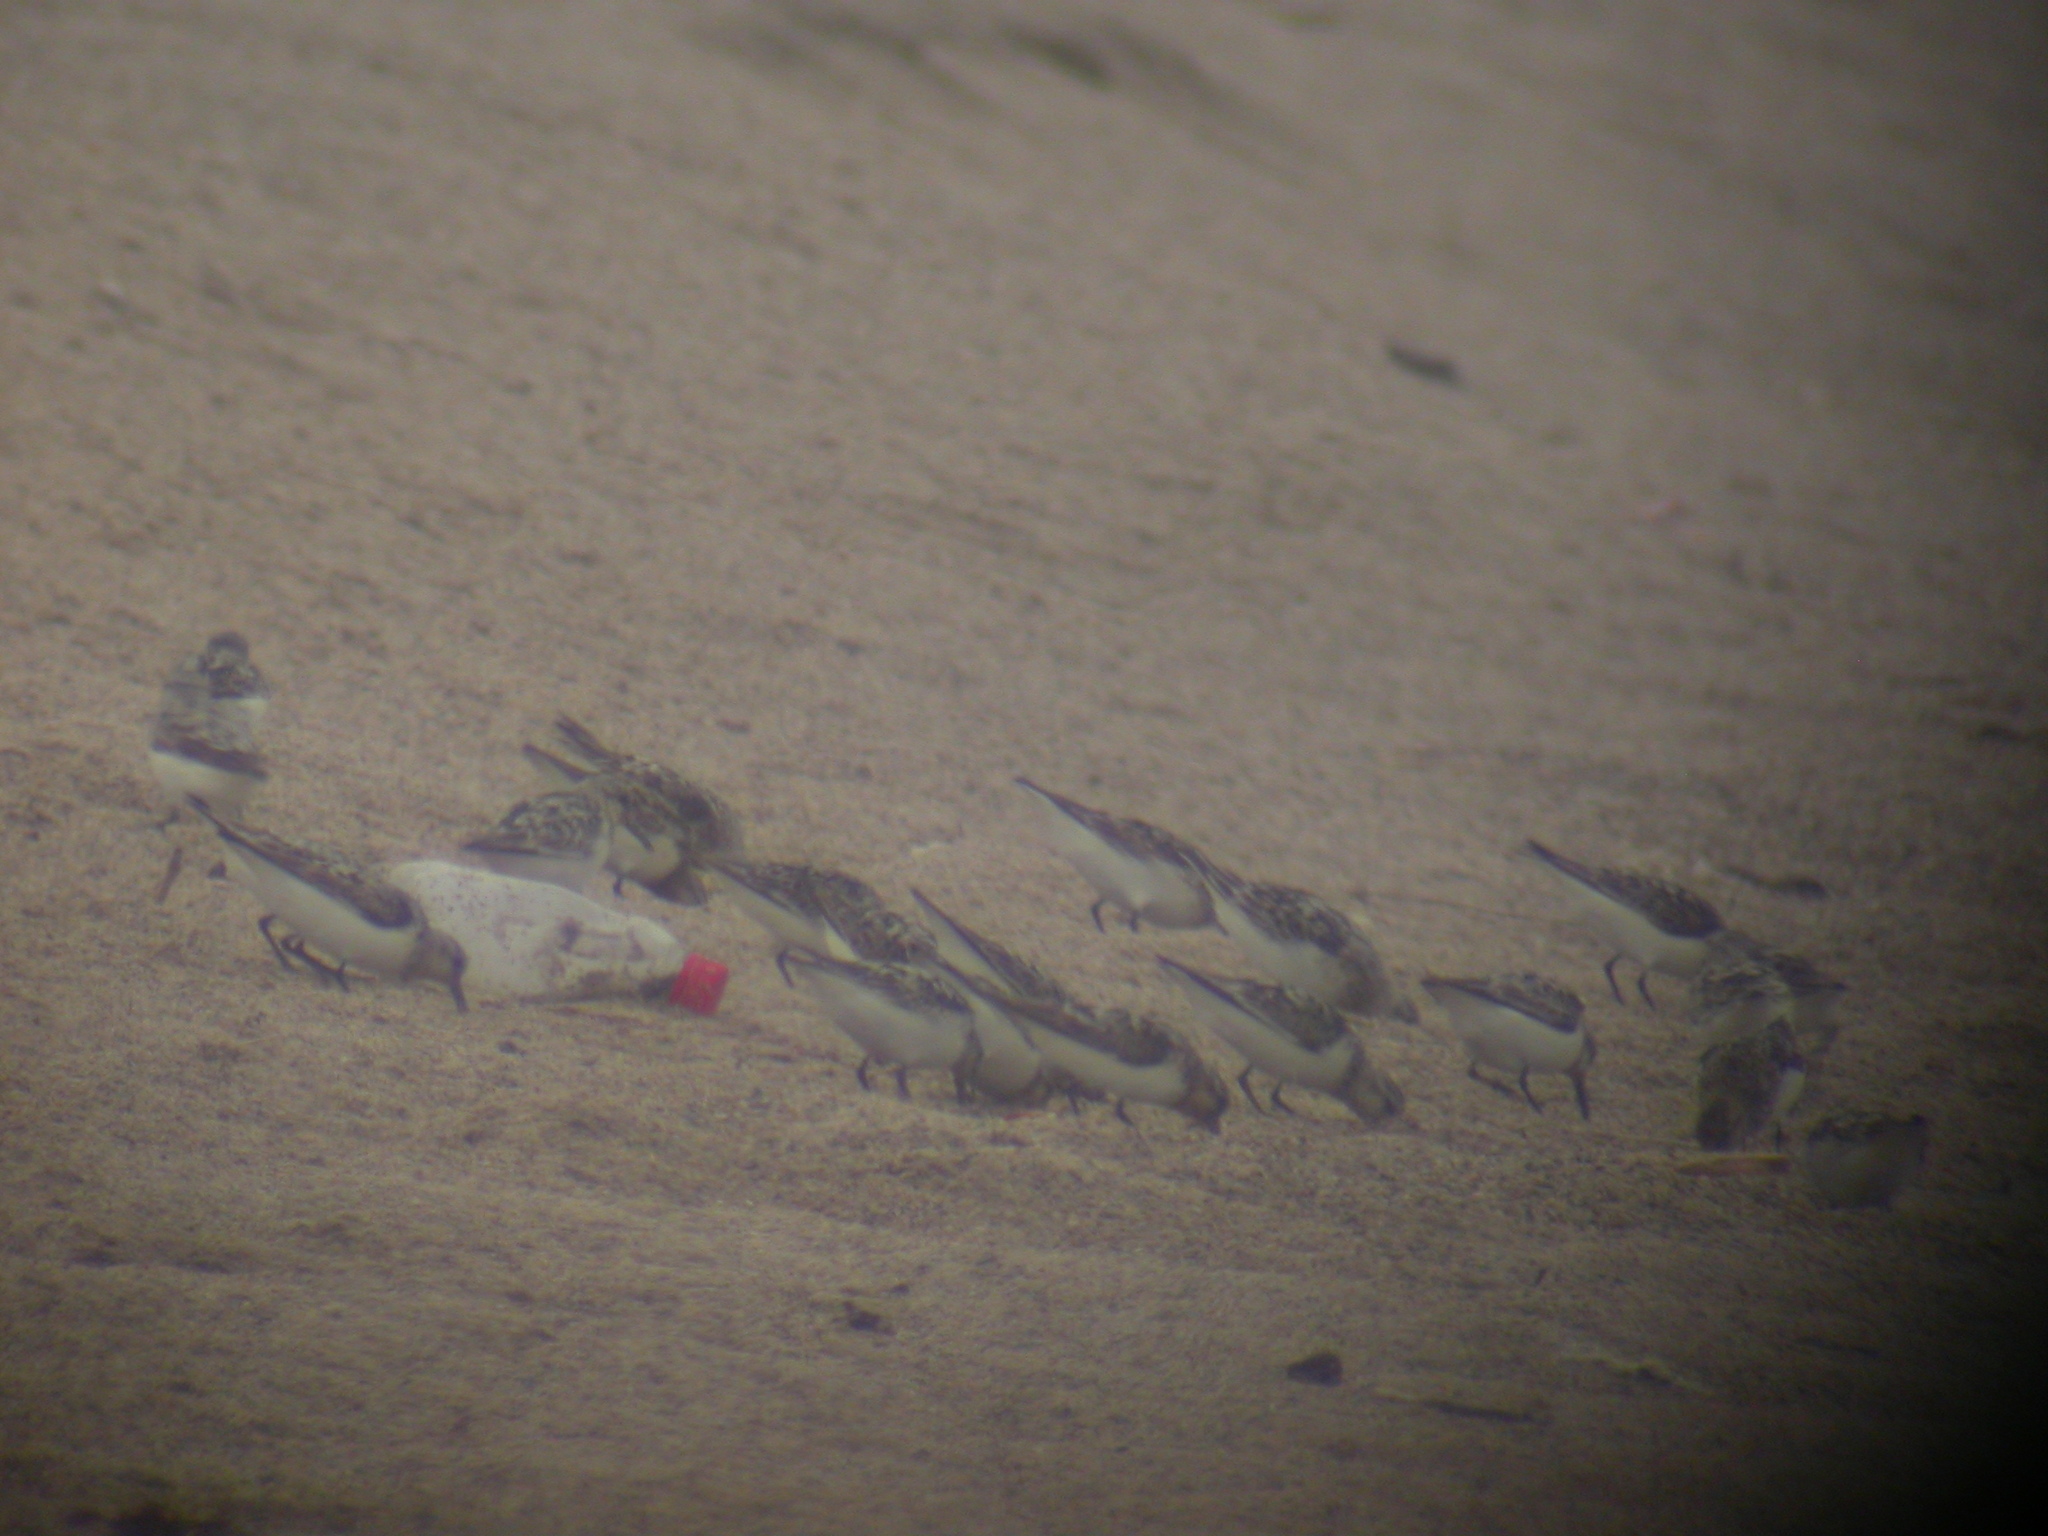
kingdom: Animalia
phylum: Chordata
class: Aves
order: Charadriiformes
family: Scolopacidae
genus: Calidris
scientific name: Calidris alba
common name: Sanderling
